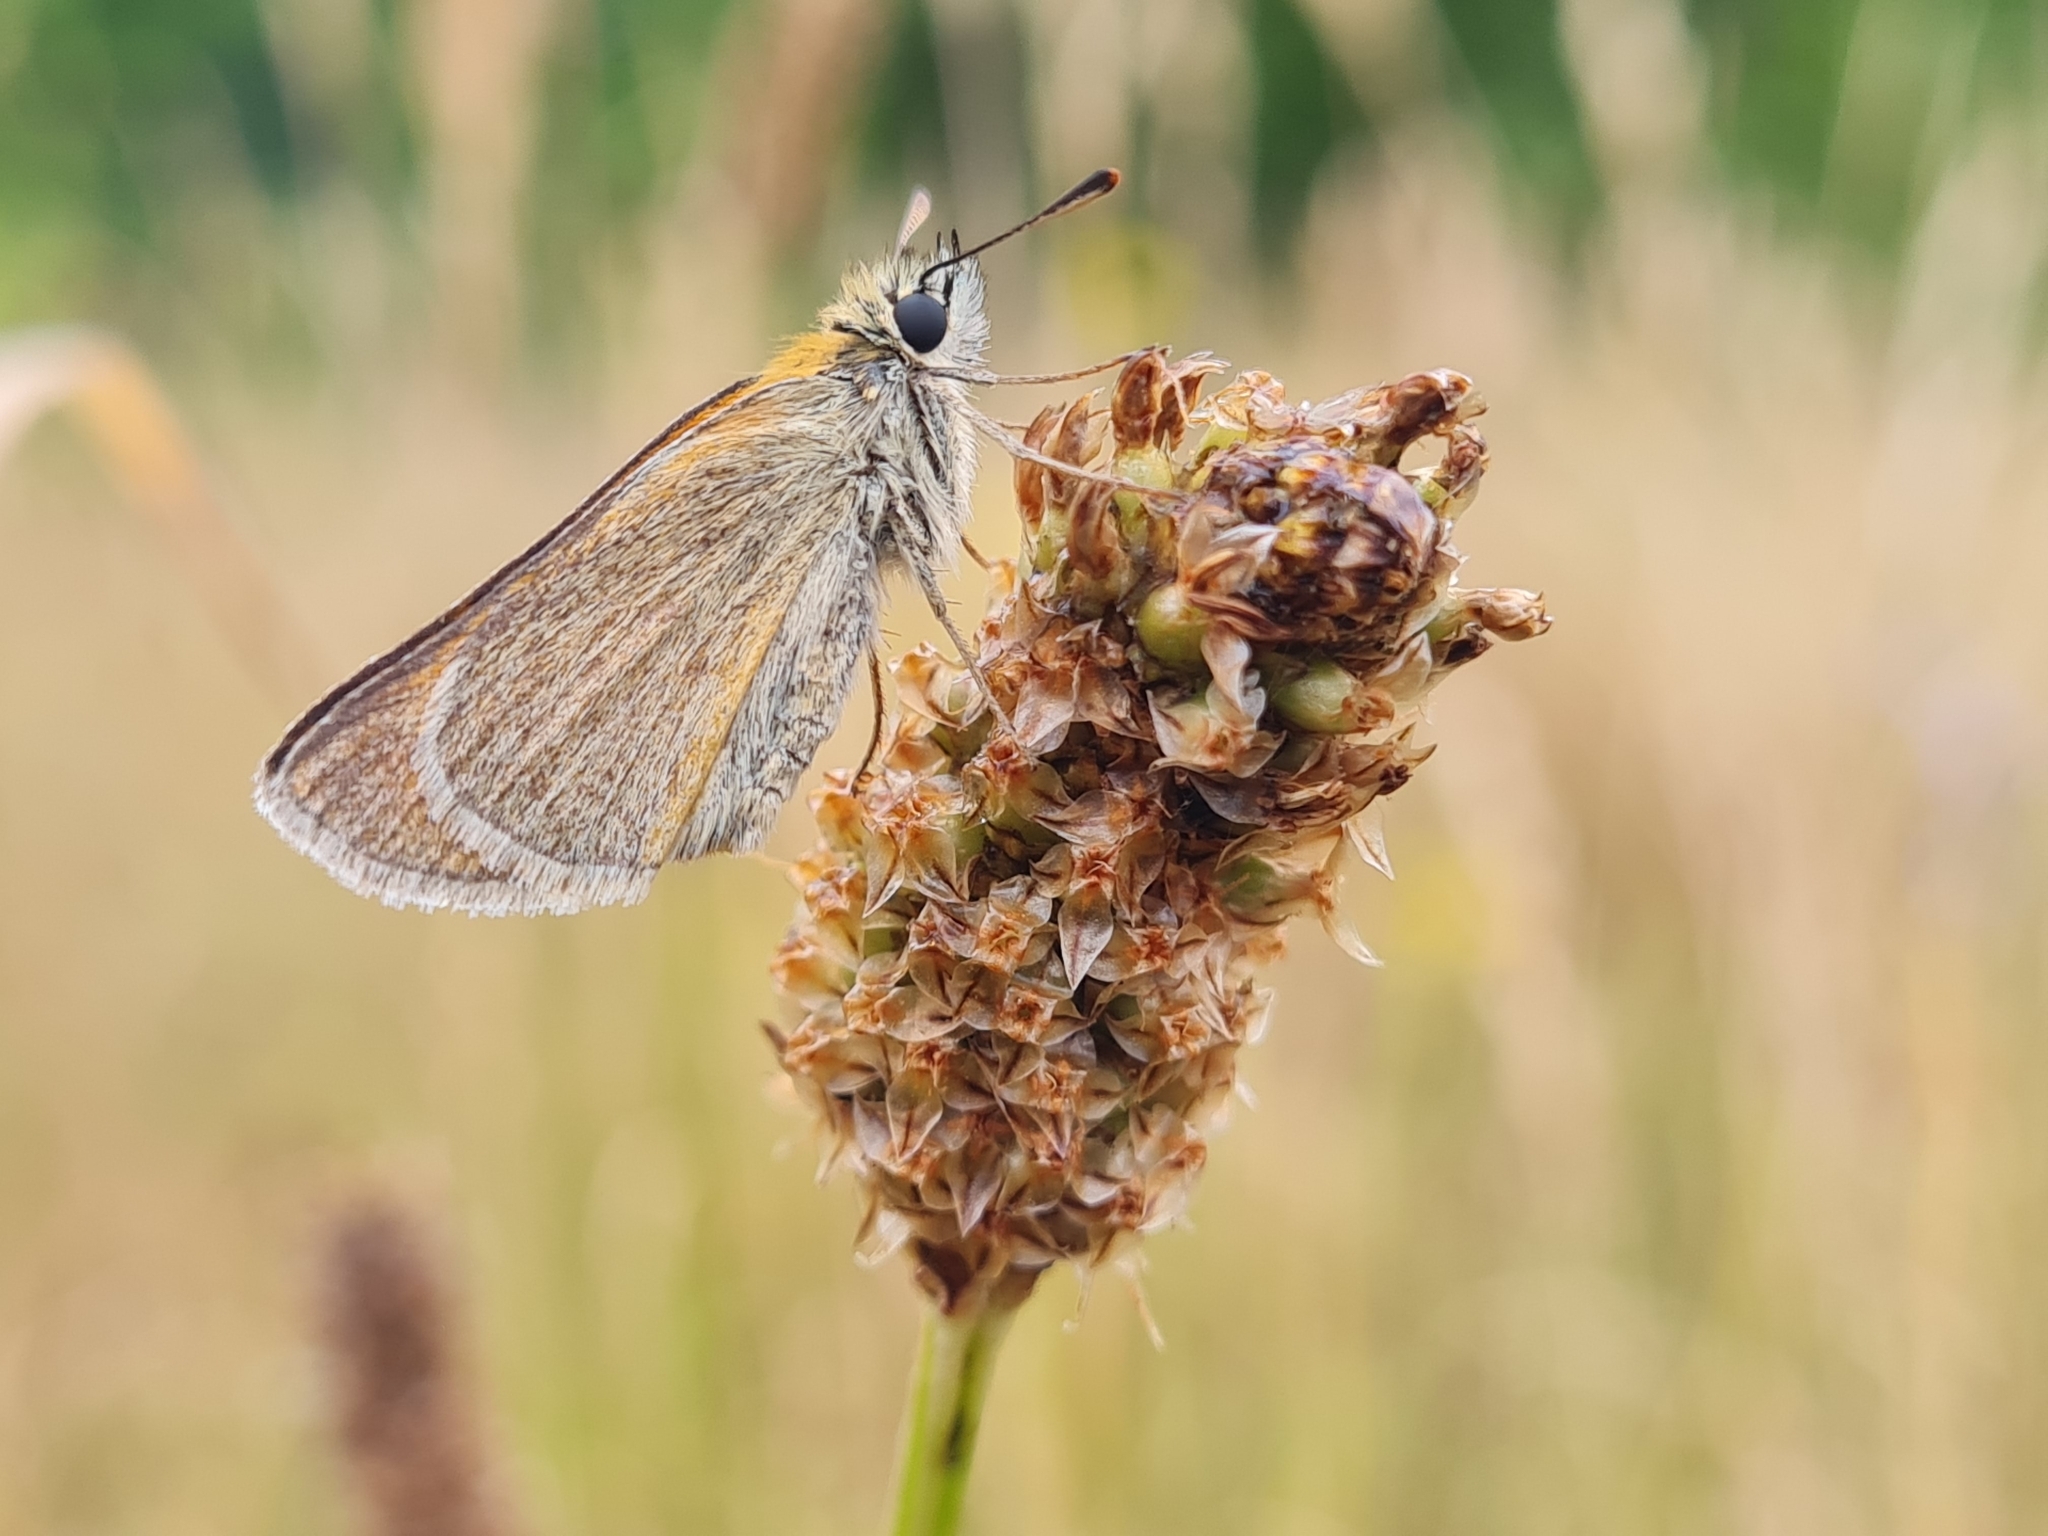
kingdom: Animalia
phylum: Arthropoda
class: Insecta
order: Lepidoptera
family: Hesperiidae
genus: Thymelicus
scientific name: Thymelicus sylvestris
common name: Small skipper
